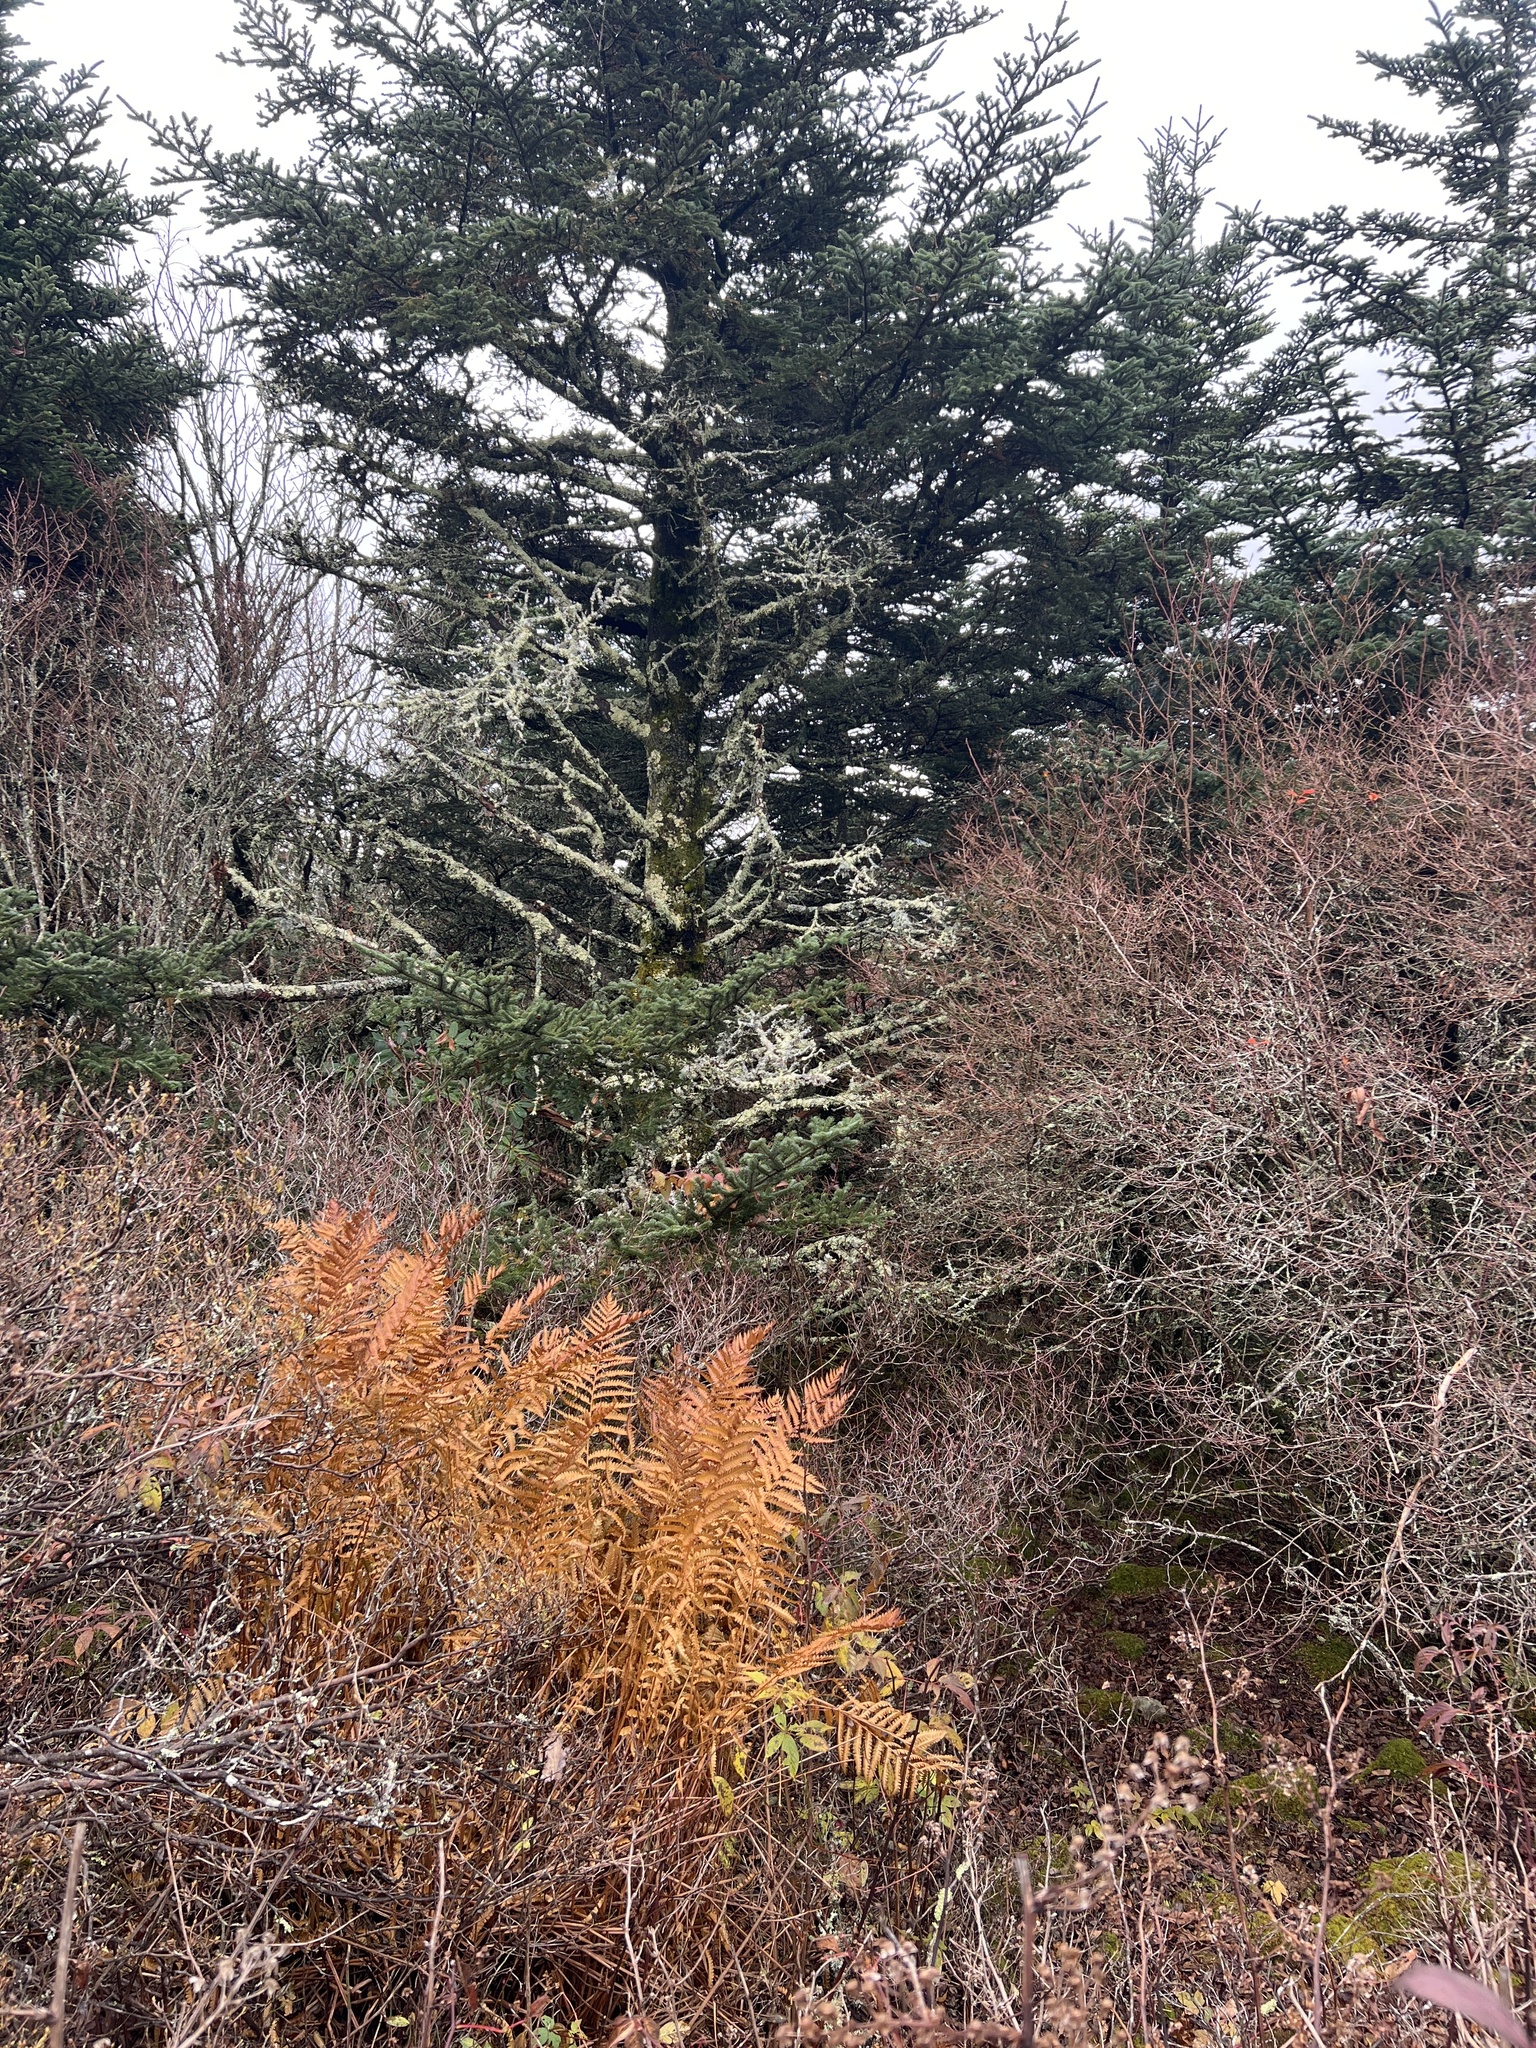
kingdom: Plantae
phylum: Tracheophyta
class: Polypodiopsida
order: Osmundales
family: Osmundaceae
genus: Osmundastrum
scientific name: Osmundastrum cinnamomeum
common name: Cinnamon fern
